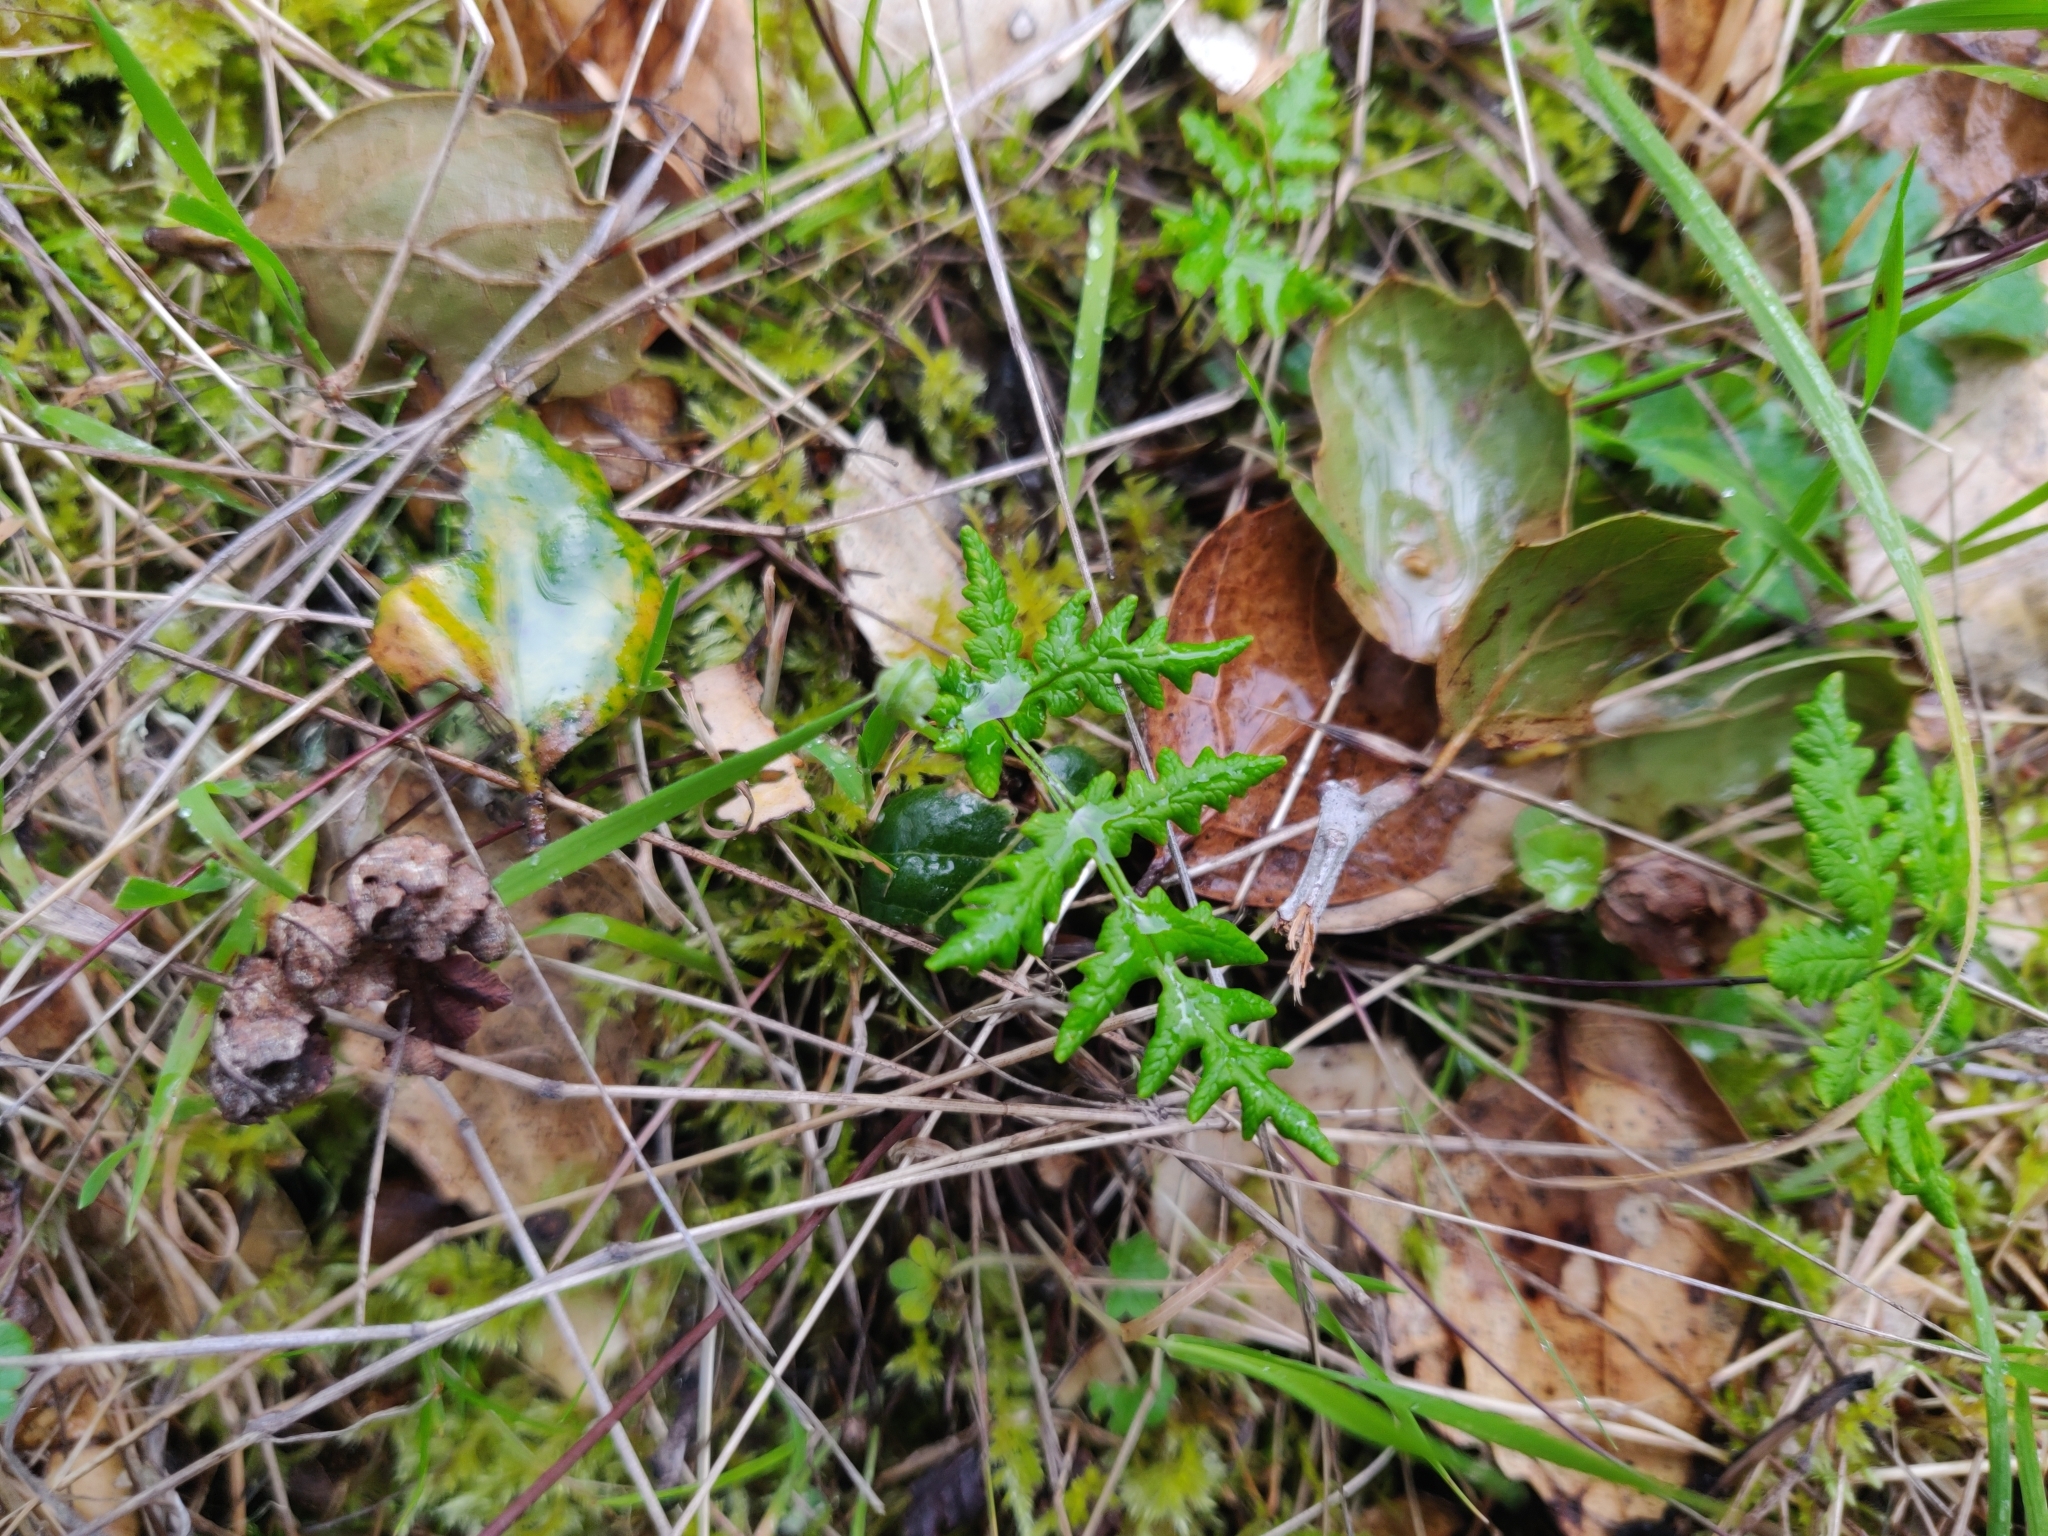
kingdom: Plantae
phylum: Tracheophyta
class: Polypodiopsida
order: Polypodiales
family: Pteridaceae
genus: Pentagramma
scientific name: Pentagramma triangularis
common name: Gold fern
